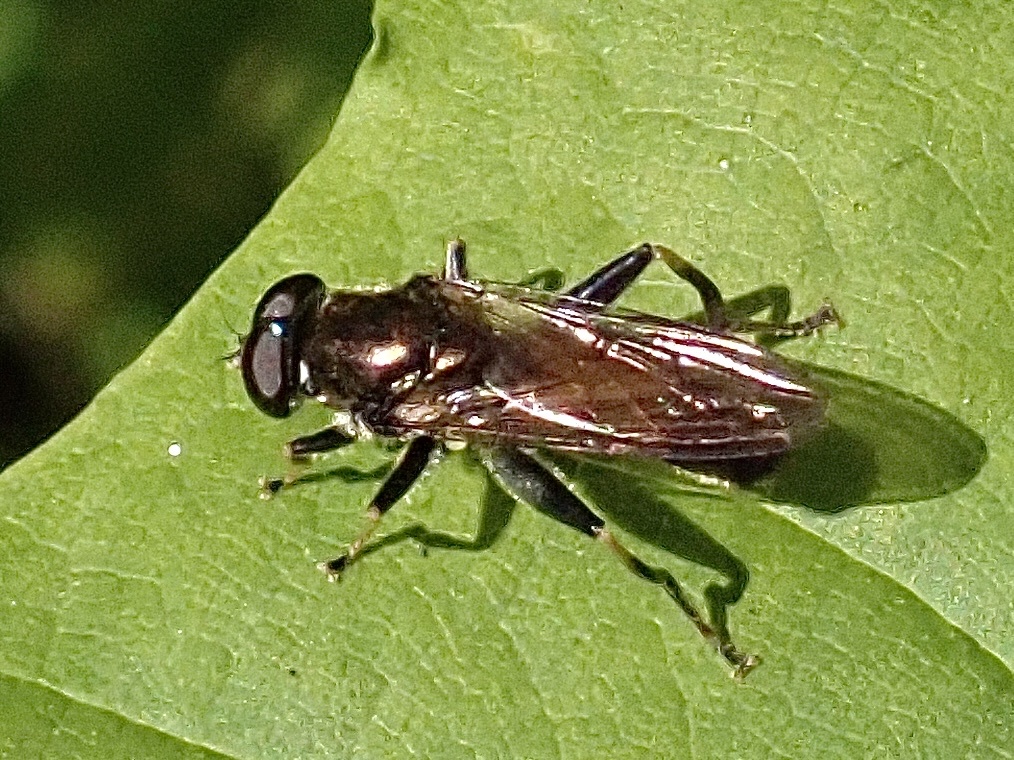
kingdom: Animalia
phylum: Arthropoda
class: Insecta
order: Diptera
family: Syrphidae
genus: Xylota
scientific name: Xylota segnis
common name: Brown-toed forest fly
